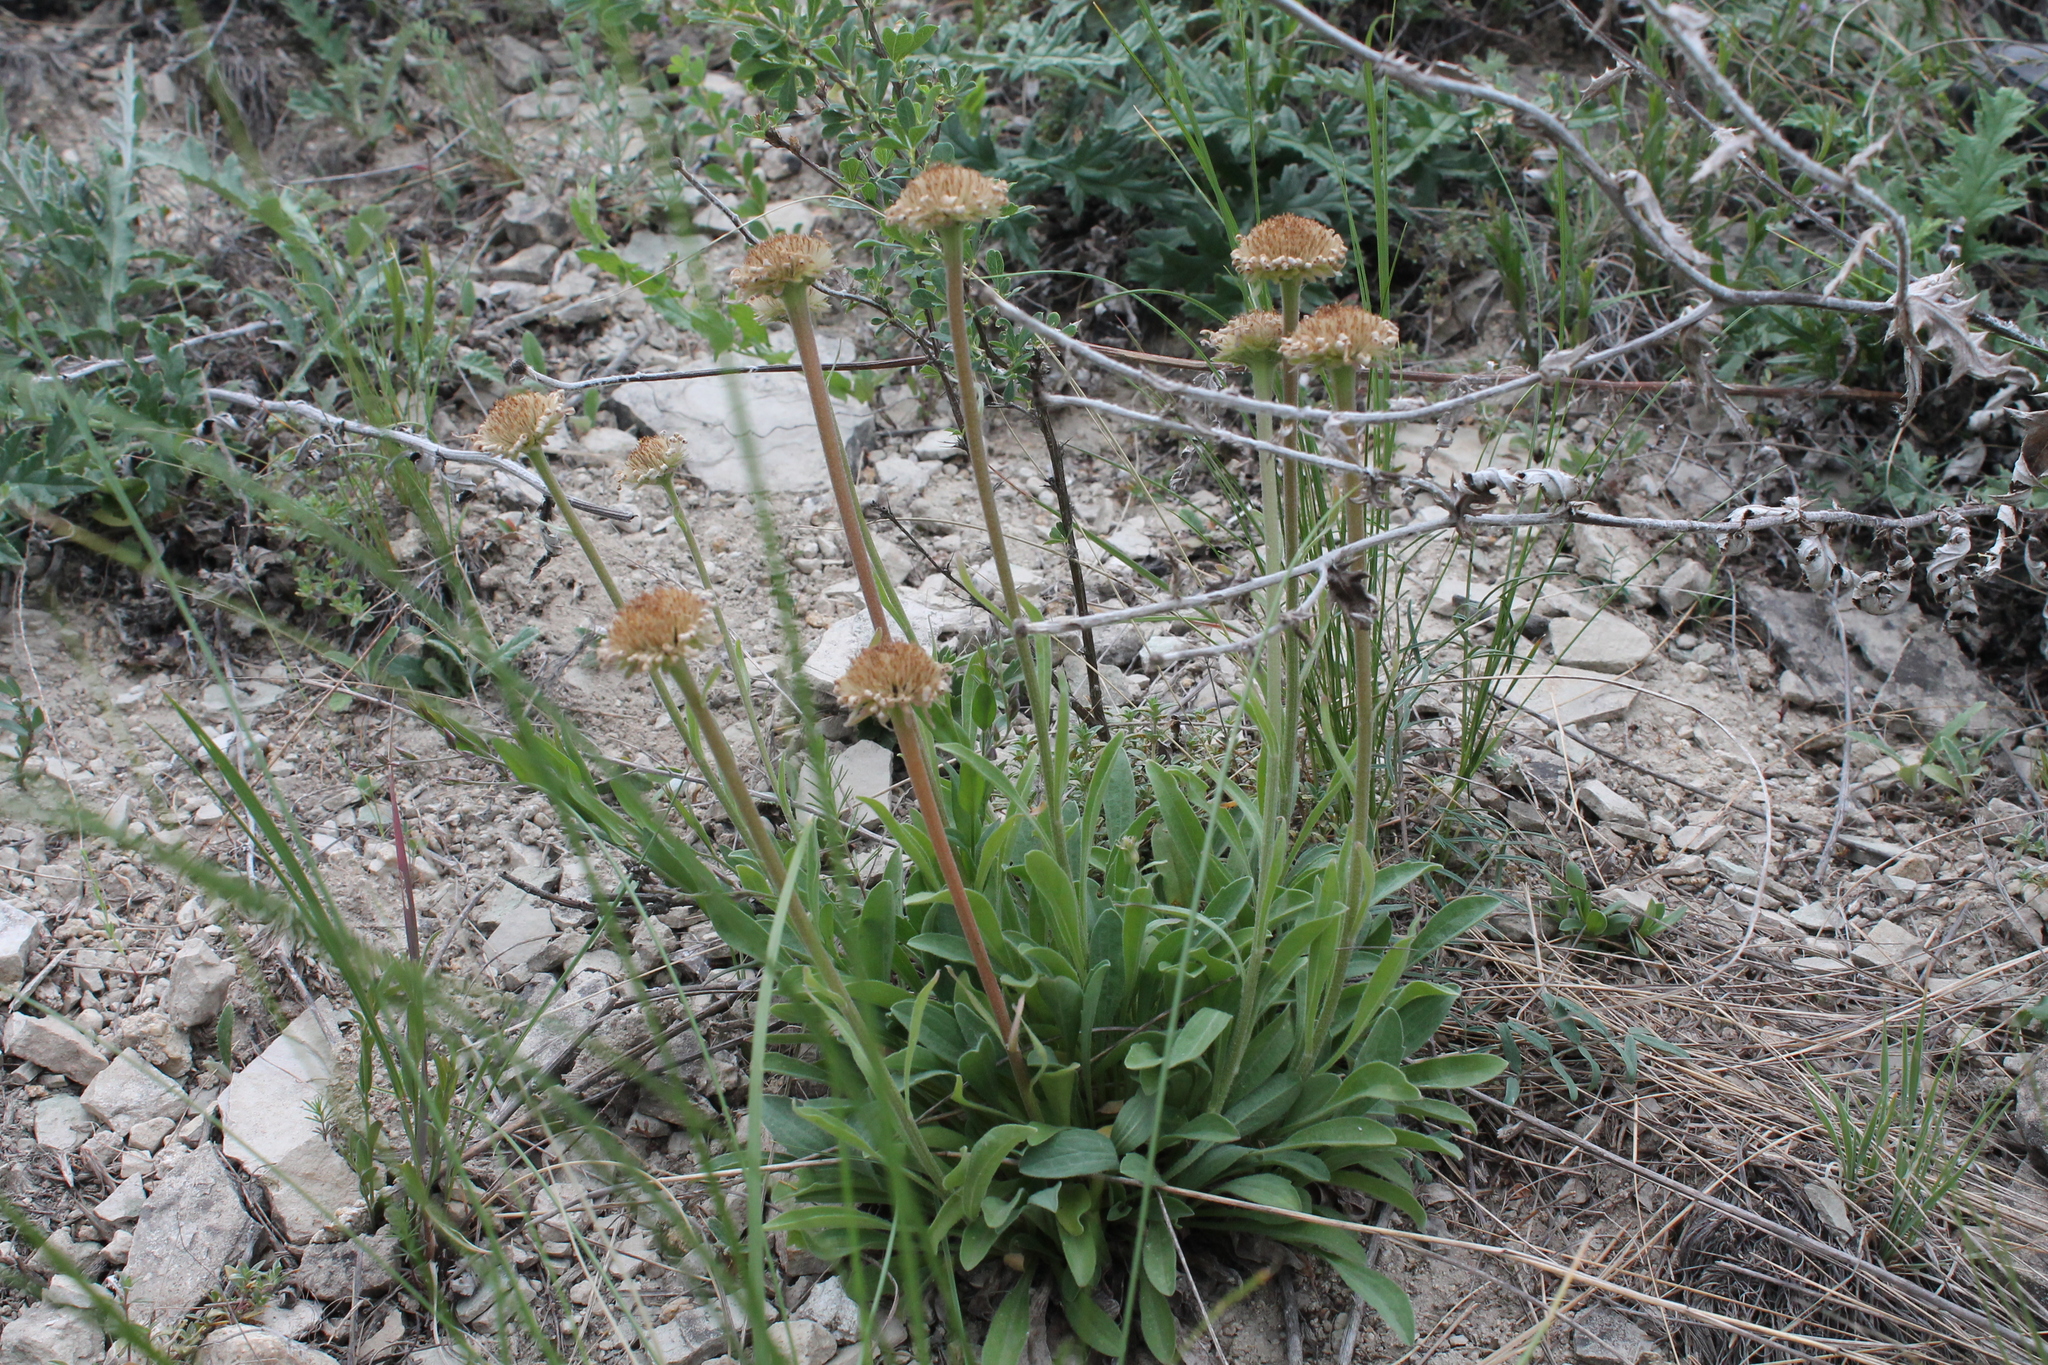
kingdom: Plantae
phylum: Tracheophyta
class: Magnoliopsida
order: Asterales
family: Asteraceae
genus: Aster
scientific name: Aster alpinus
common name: Alpine aster
